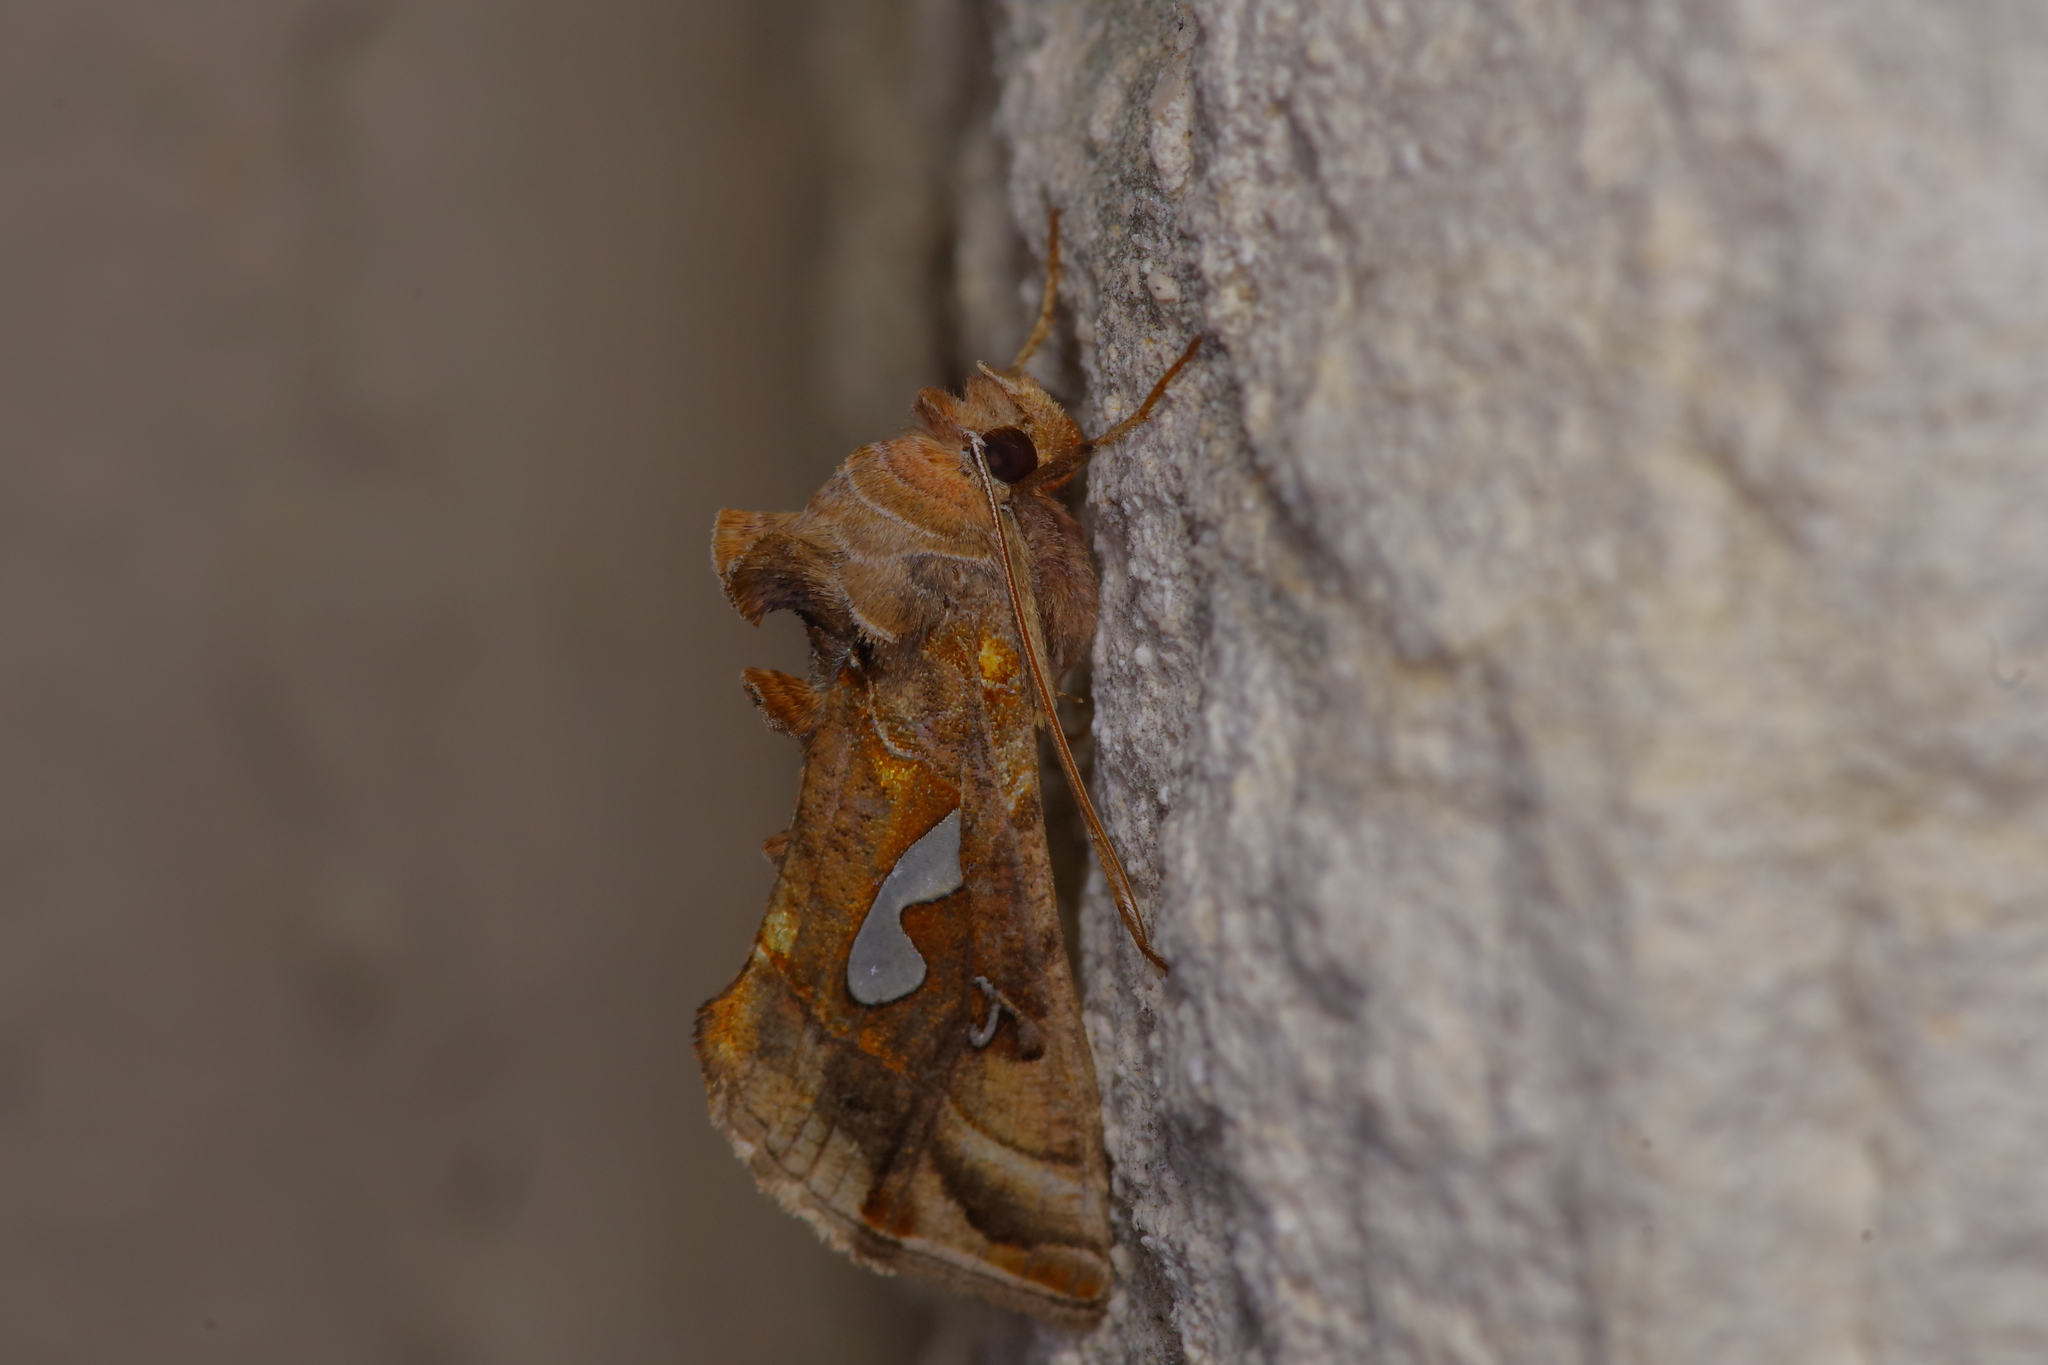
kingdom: Animalia
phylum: Arthropoda
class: Insecta
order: Lepidoptera
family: Noctuidae
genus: Megalographa
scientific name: Megalographa biloba
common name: Cutworm
